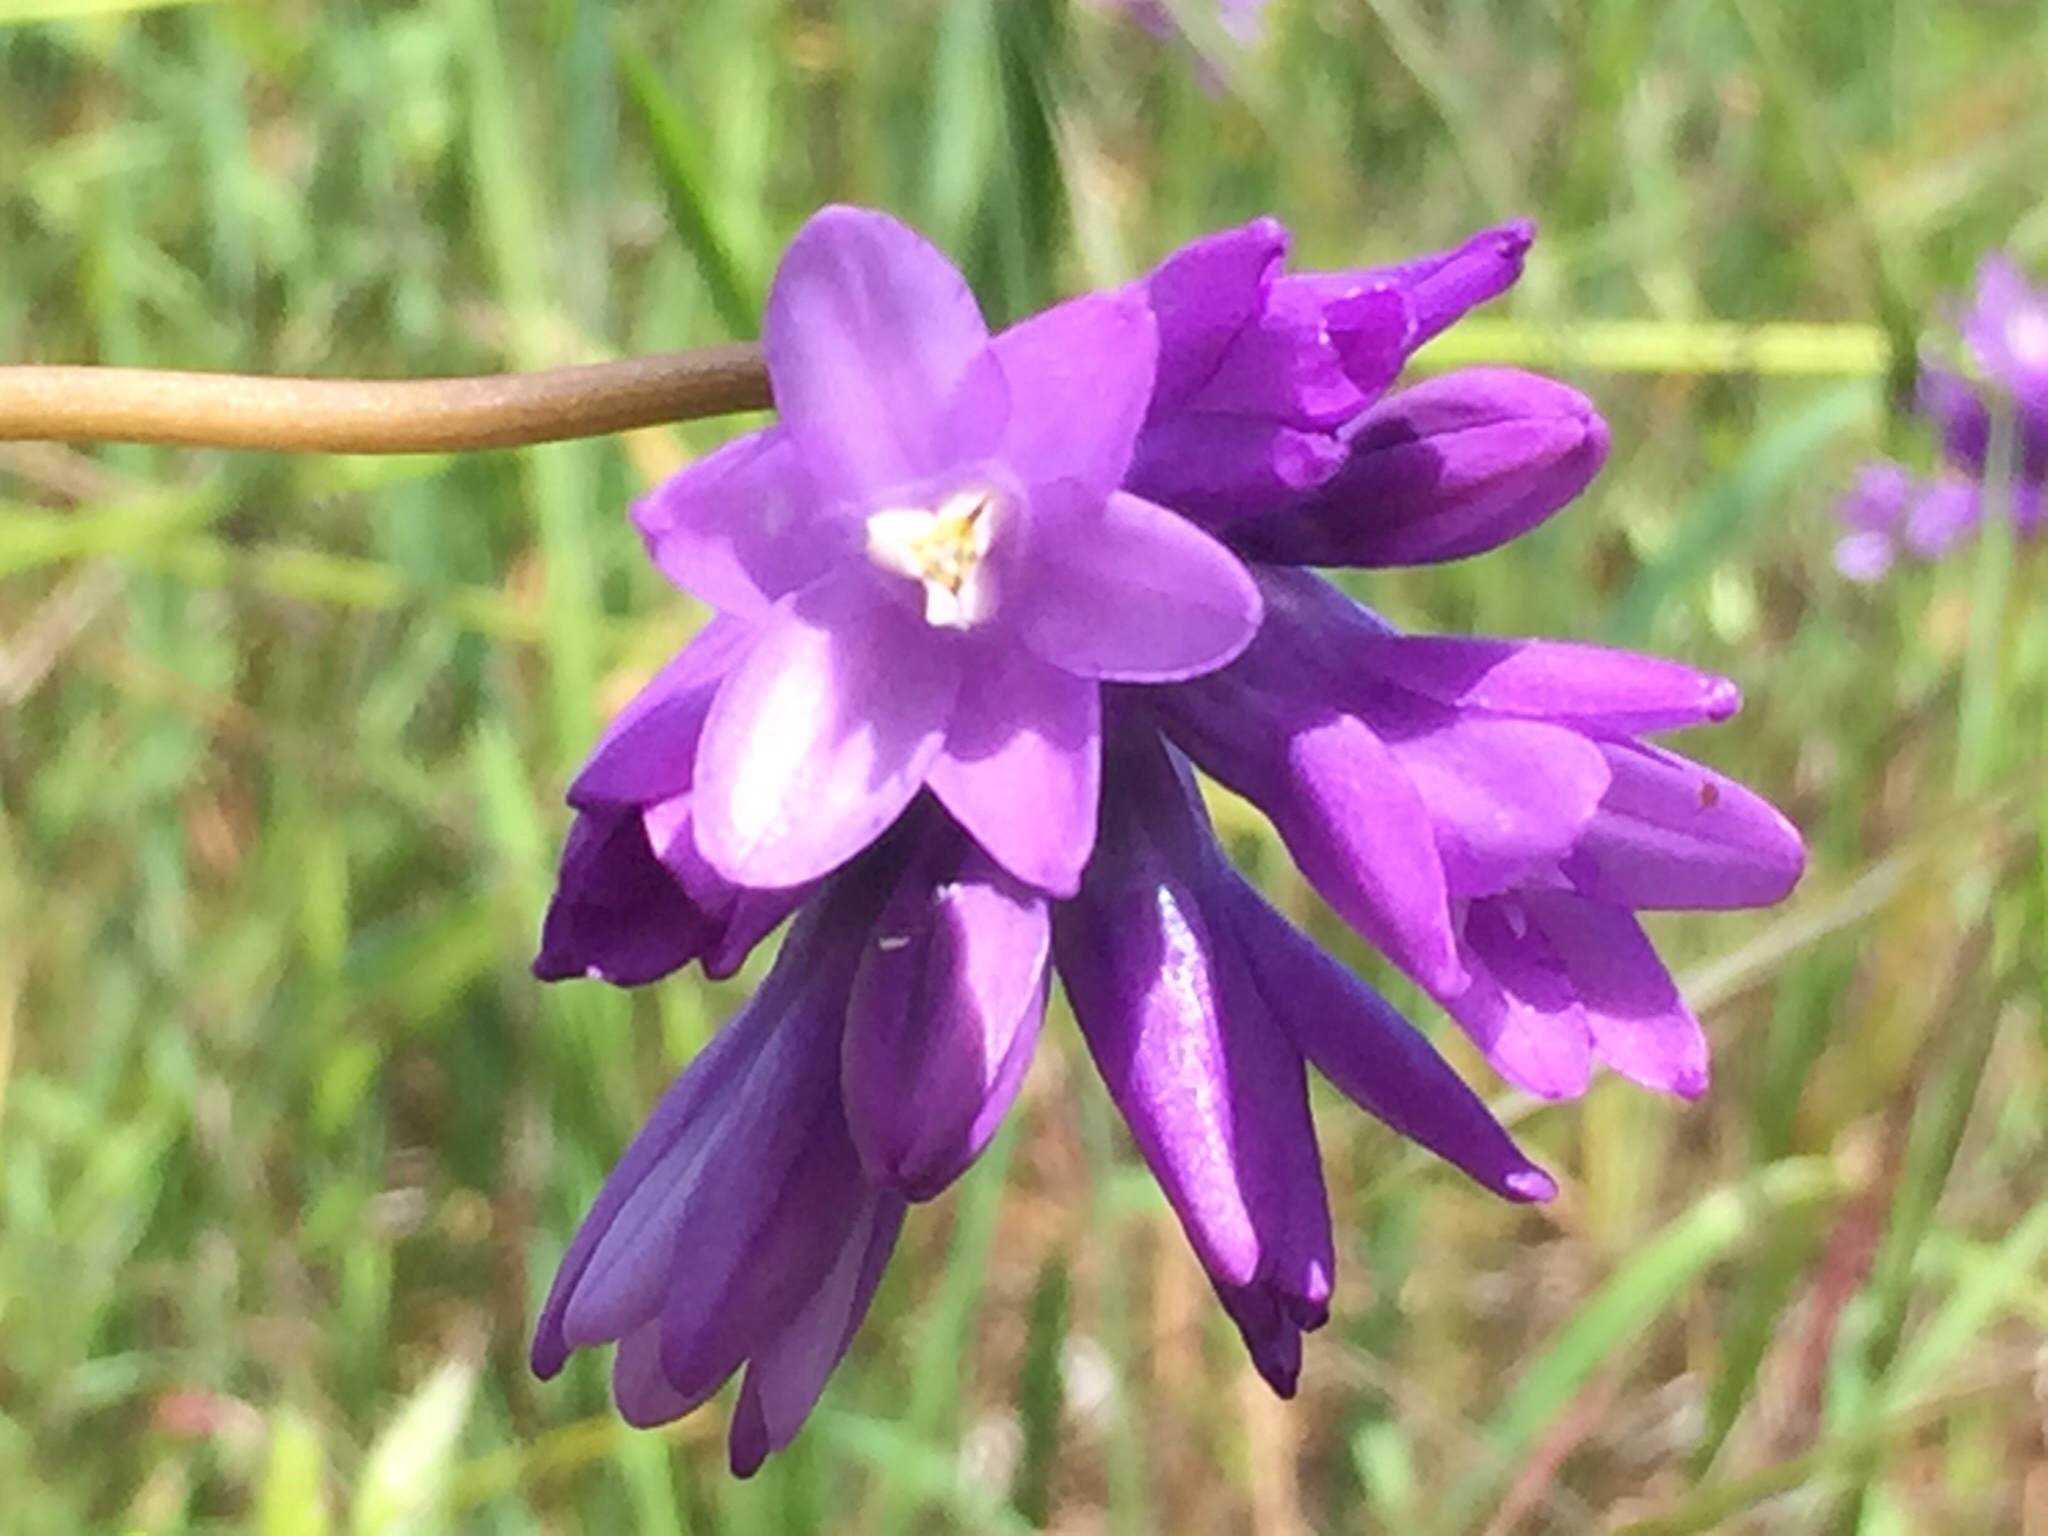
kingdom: Plantae
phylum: Tracheophyta
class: Liliopsida
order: Asparagales
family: Asparagaceae
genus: Dipterostemon
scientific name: Dipterostemon capitatus
